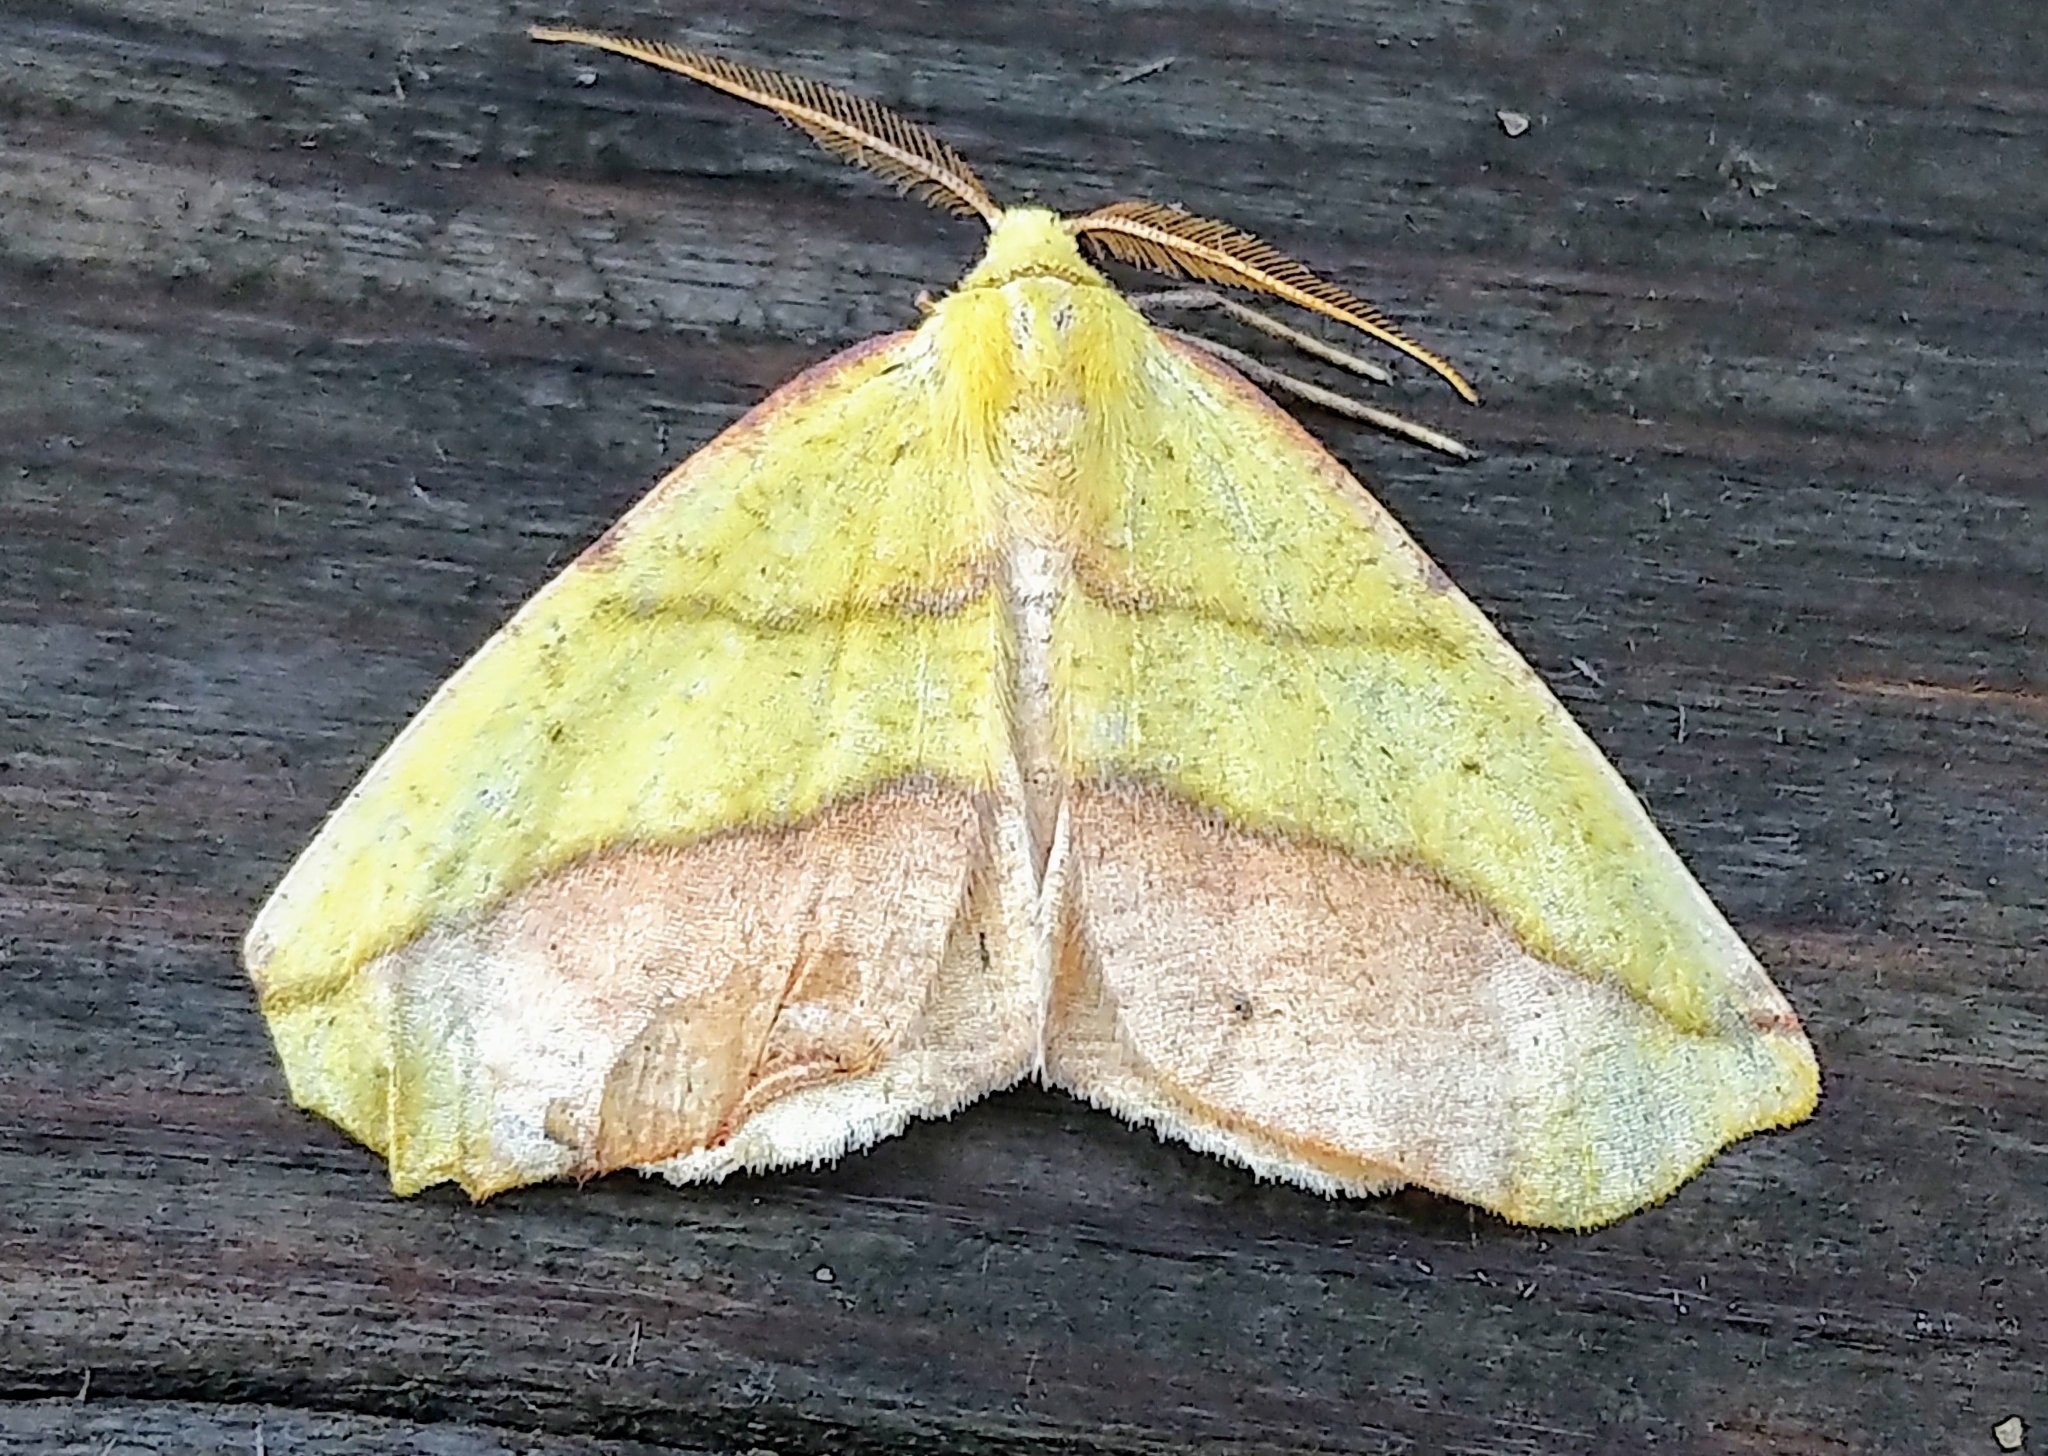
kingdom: Animalia
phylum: Arthropoda
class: Insecta
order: Lepidoptera
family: Geometridae
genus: Sicya
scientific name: Sicya macularia
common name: Sharp-lined yellow
